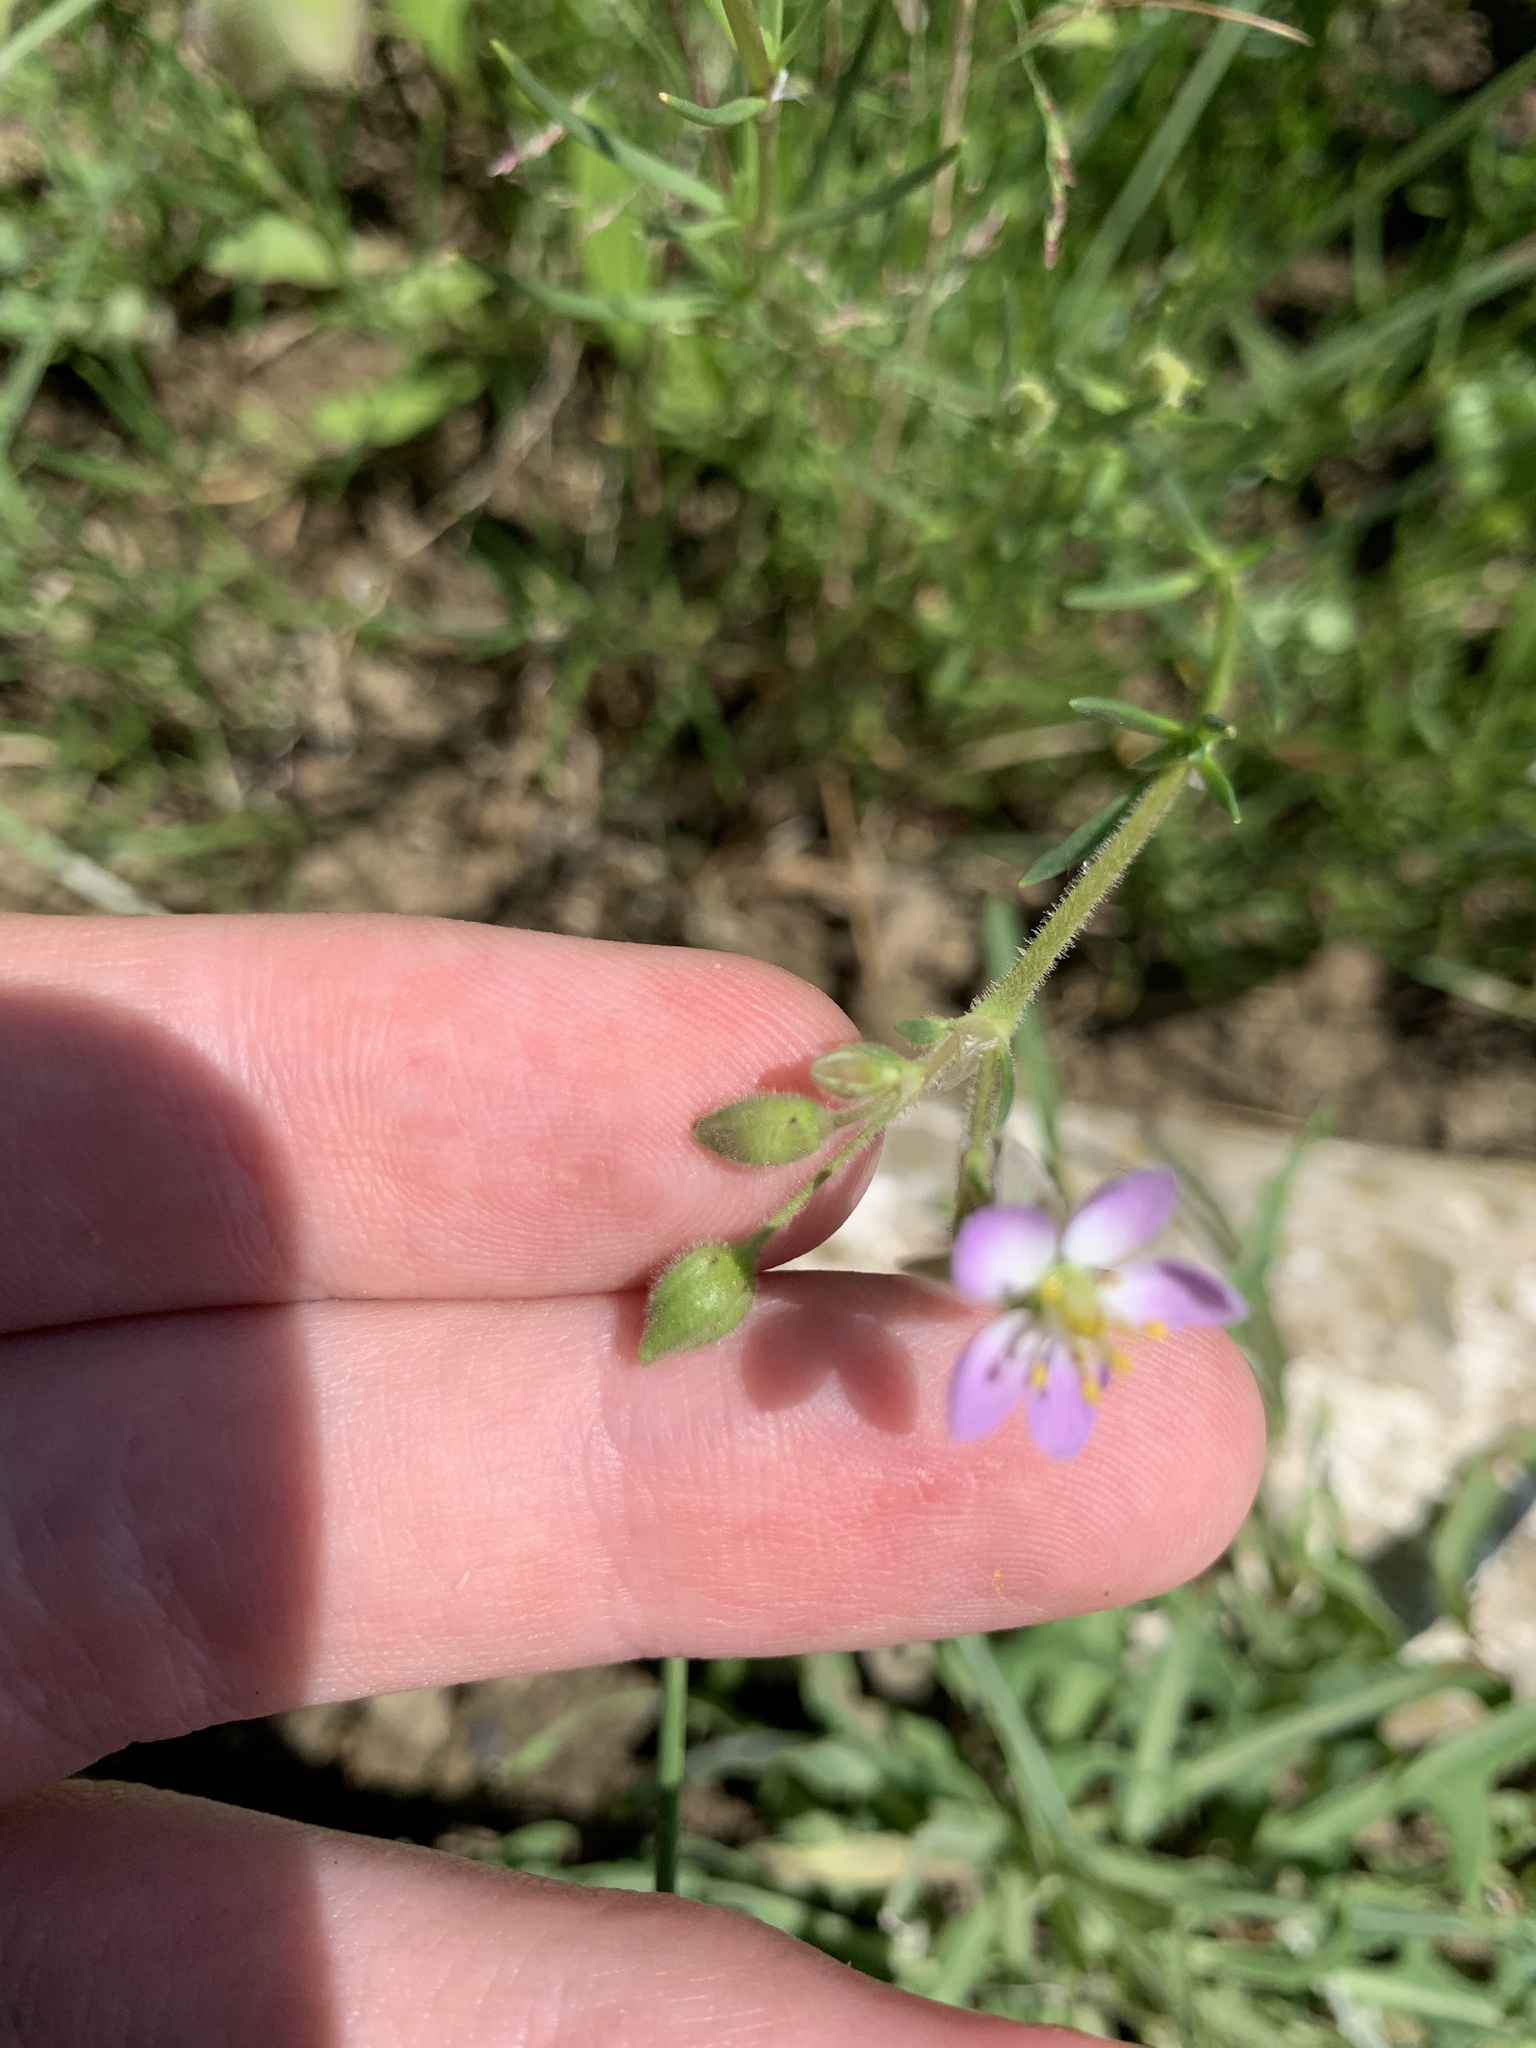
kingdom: Plantae
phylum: Tracheophyta
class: Magnoliopsida
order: Caryophyllales
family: Caryophyllaceae
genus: Spergularia
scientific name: Spergularia marina
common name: Lesser sea-spurrey
